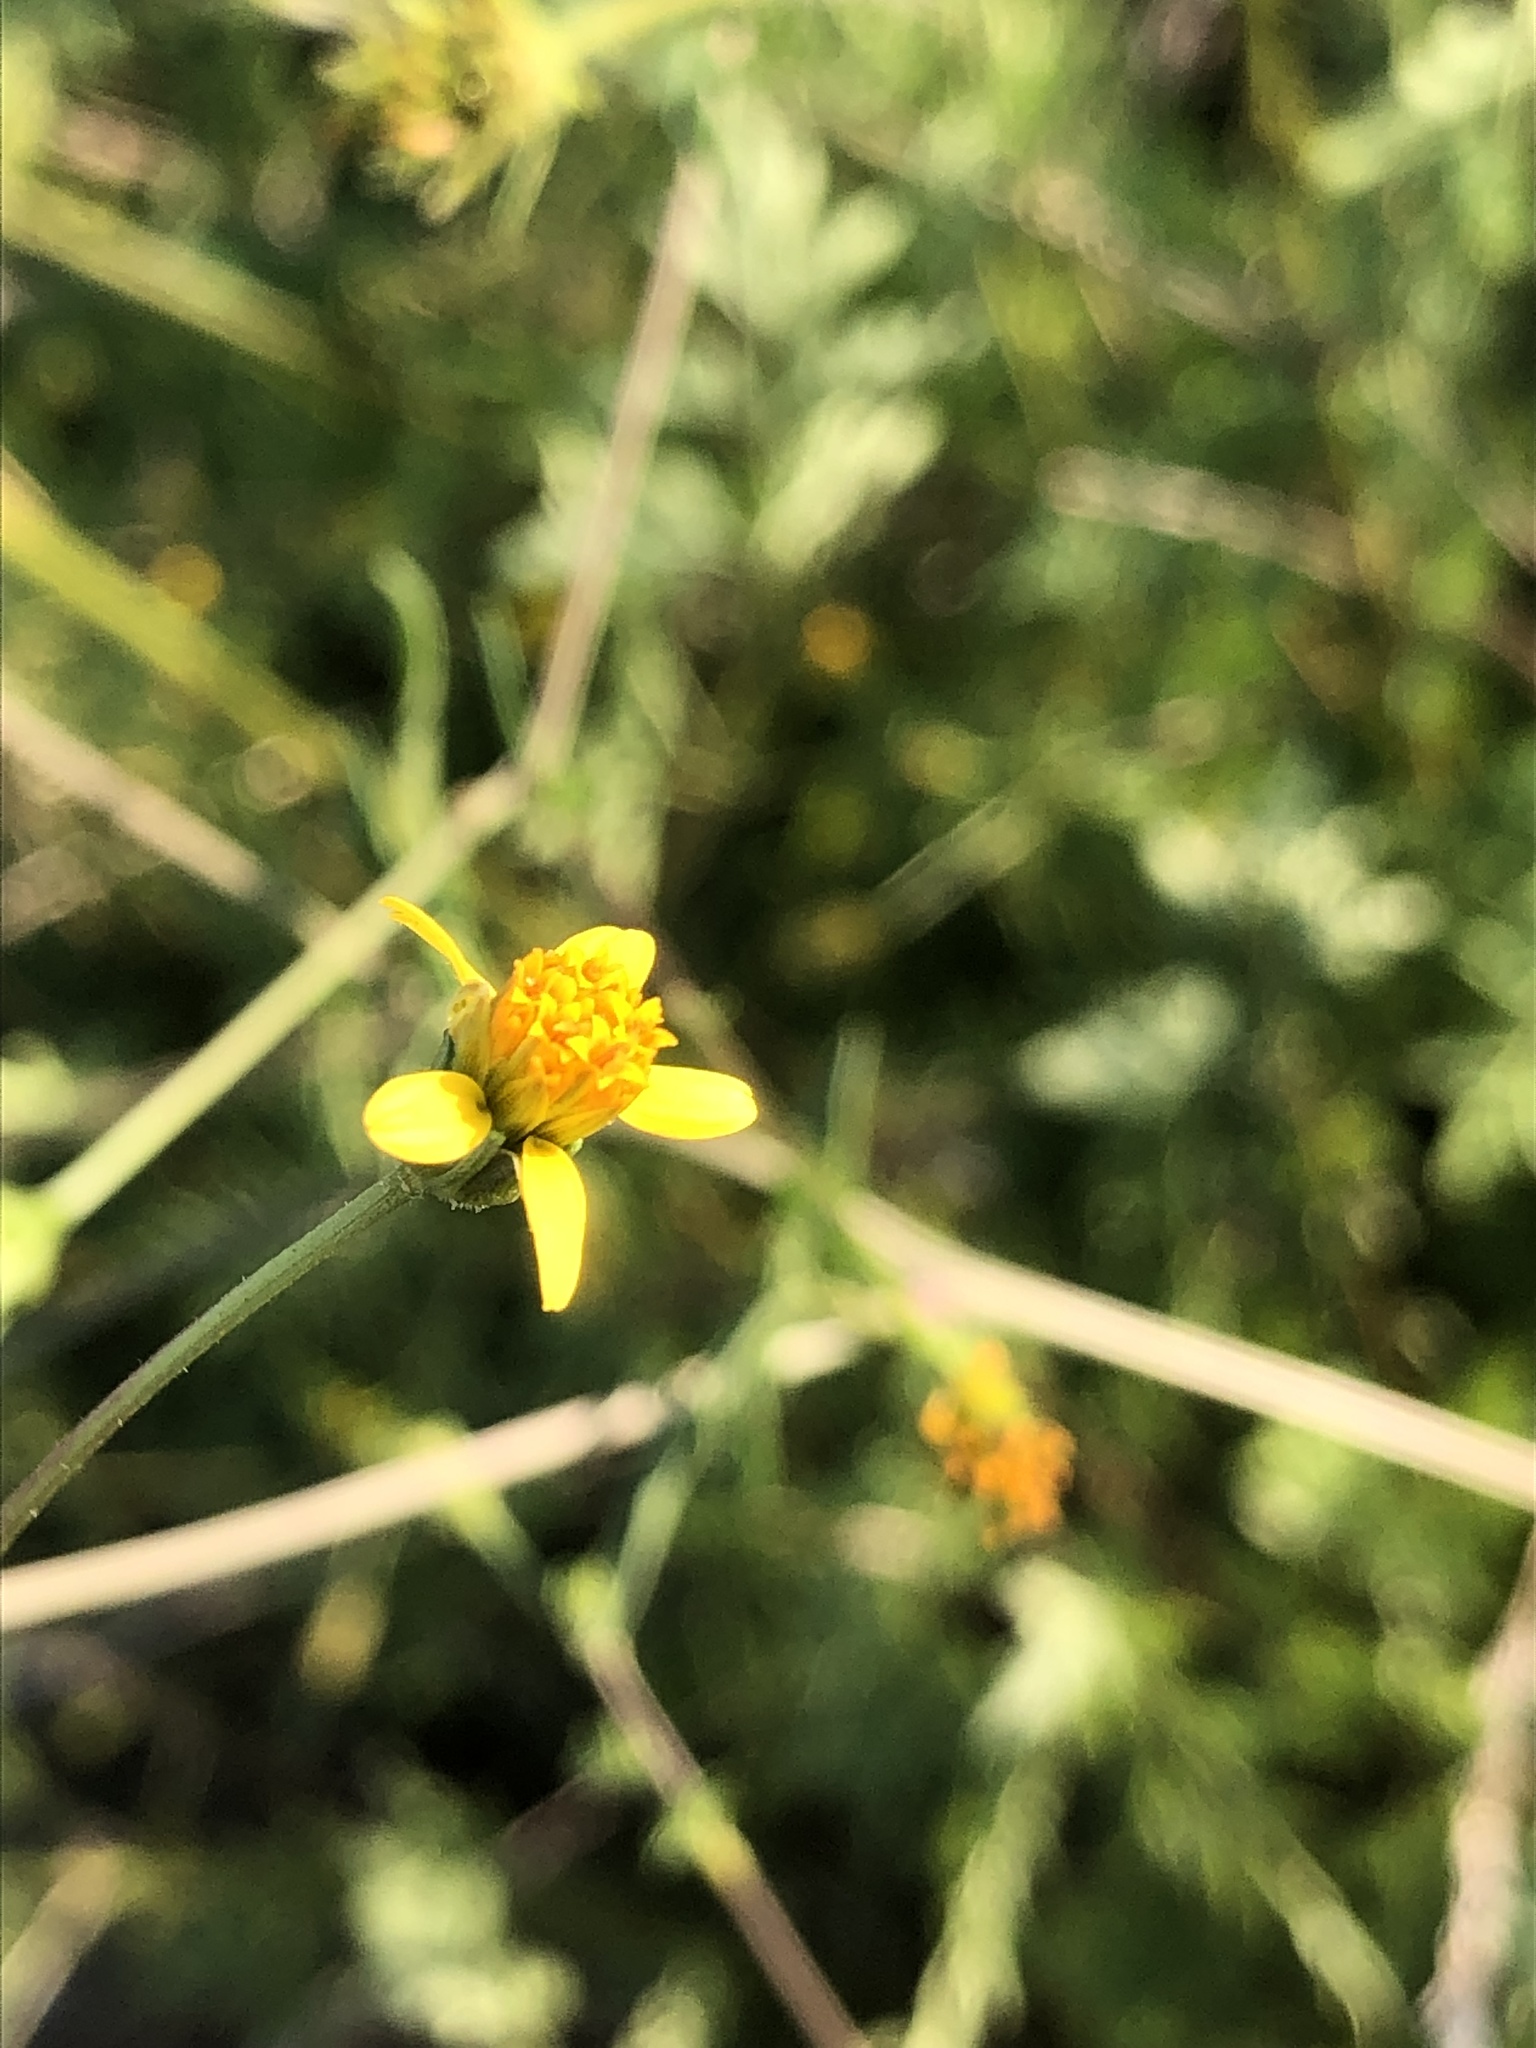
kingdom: Plantae
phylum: Tracheophyta
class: Magnoliopsida
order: Asterales
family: Asteraceae
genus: Bidens
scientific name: Bidens bipinnata
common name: Spanish-needles
